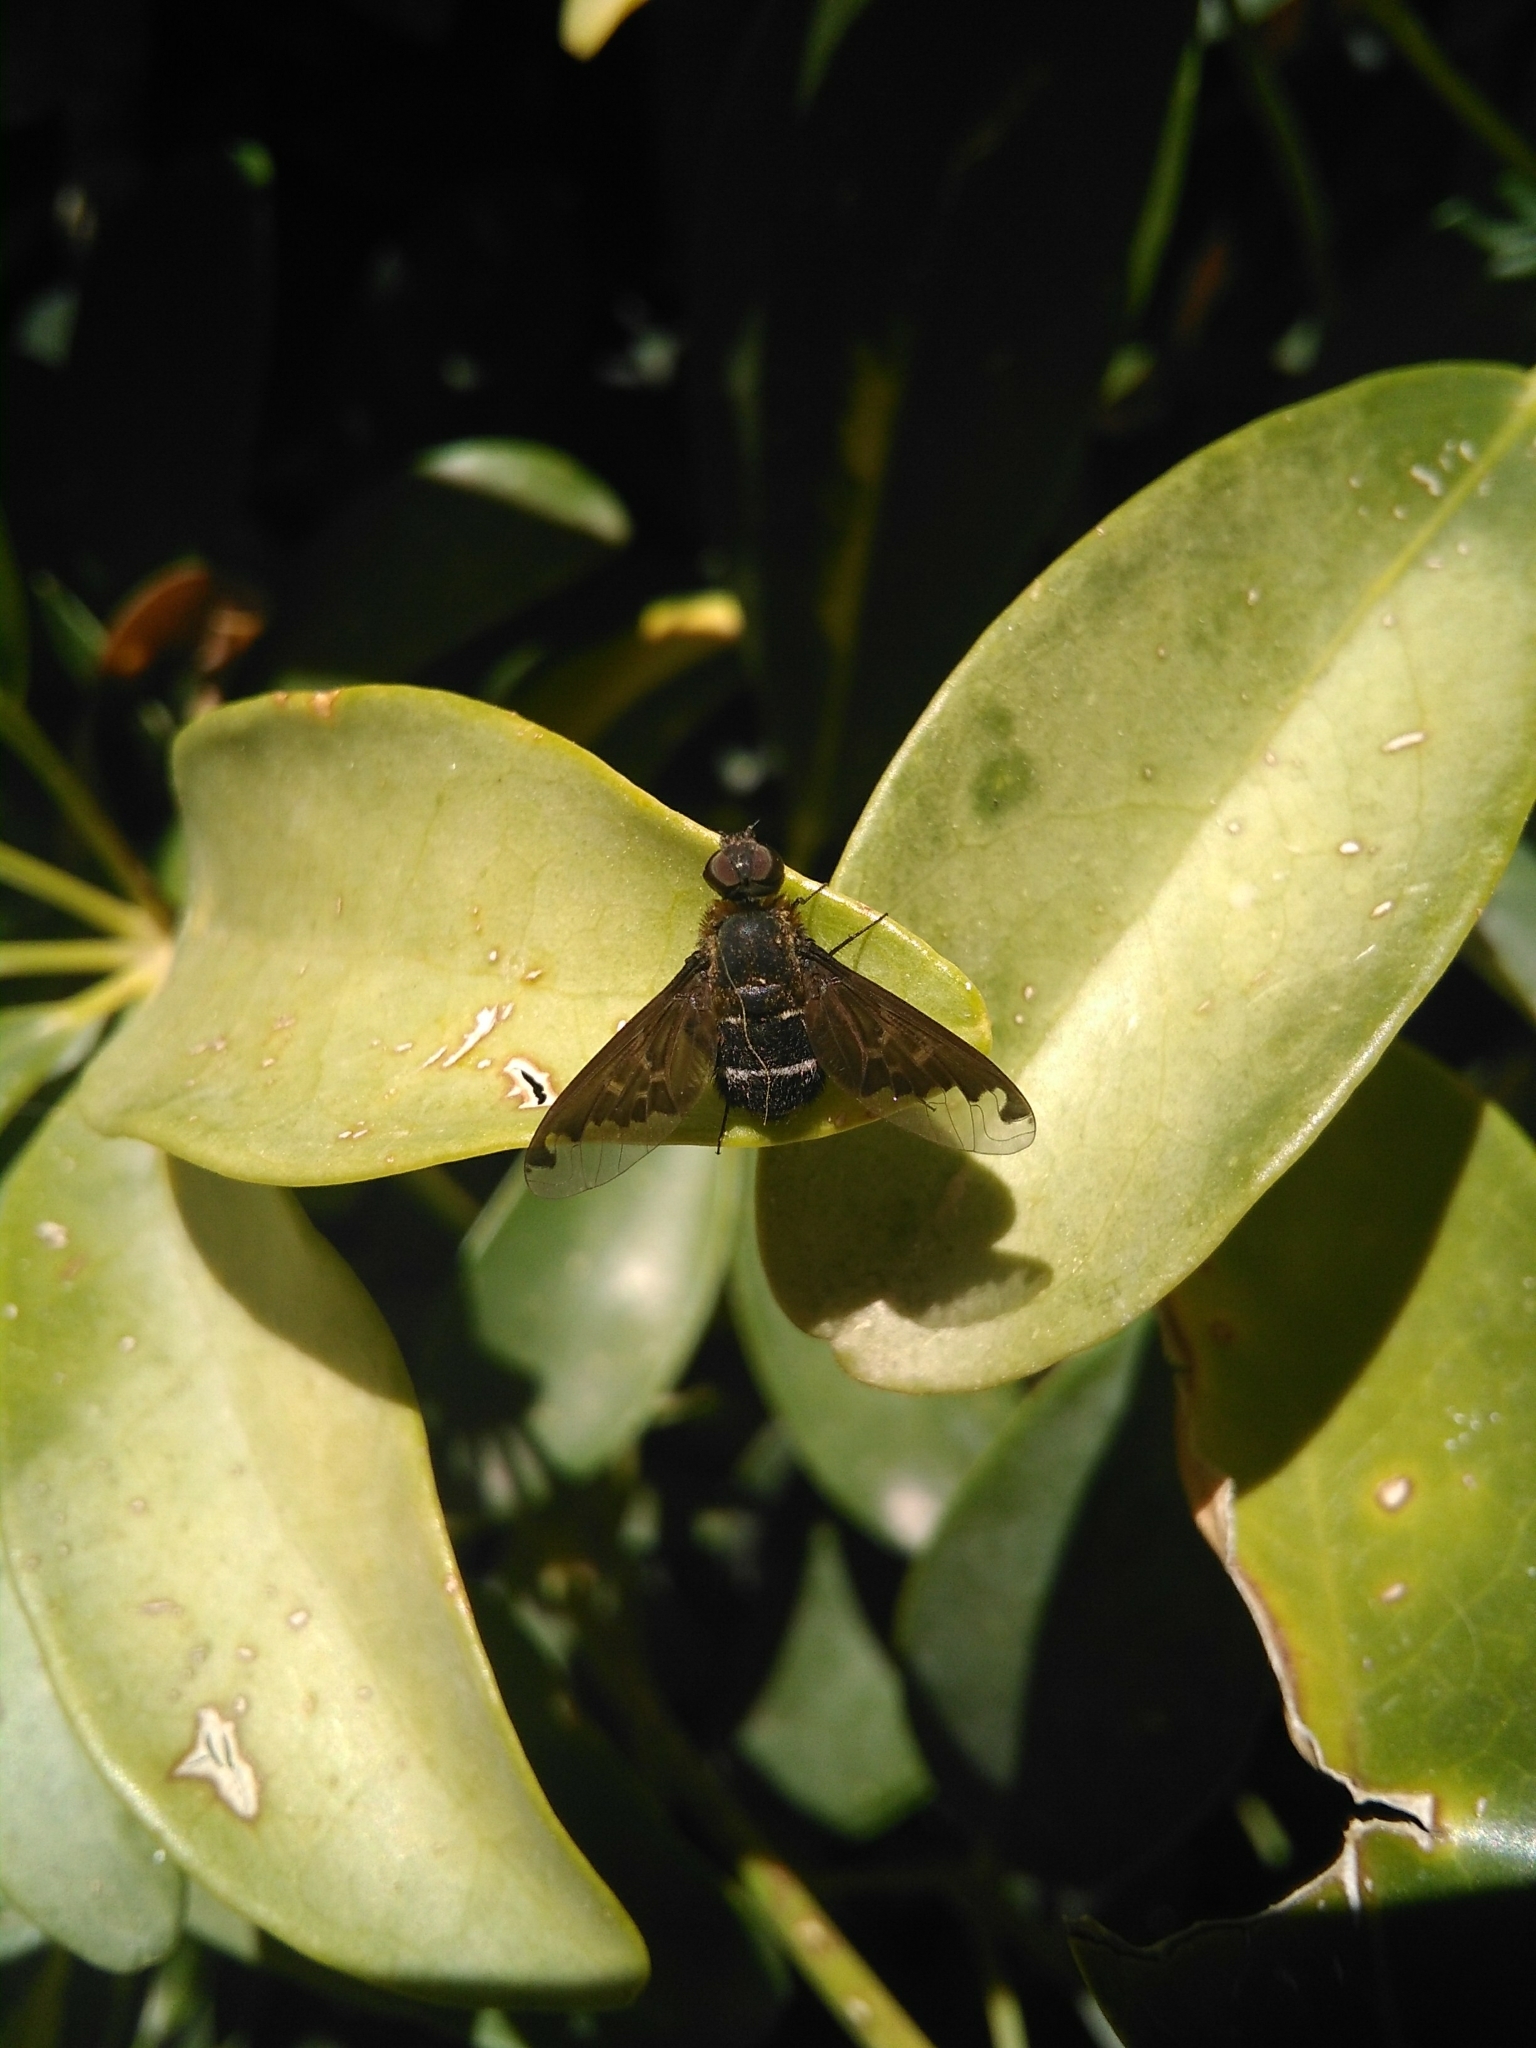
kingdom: Animalia
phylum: Arthropoda
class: Insecta
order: Diptera
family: Bombyliidae
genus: Hemipenthes
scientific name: Hemipenthes velutina
